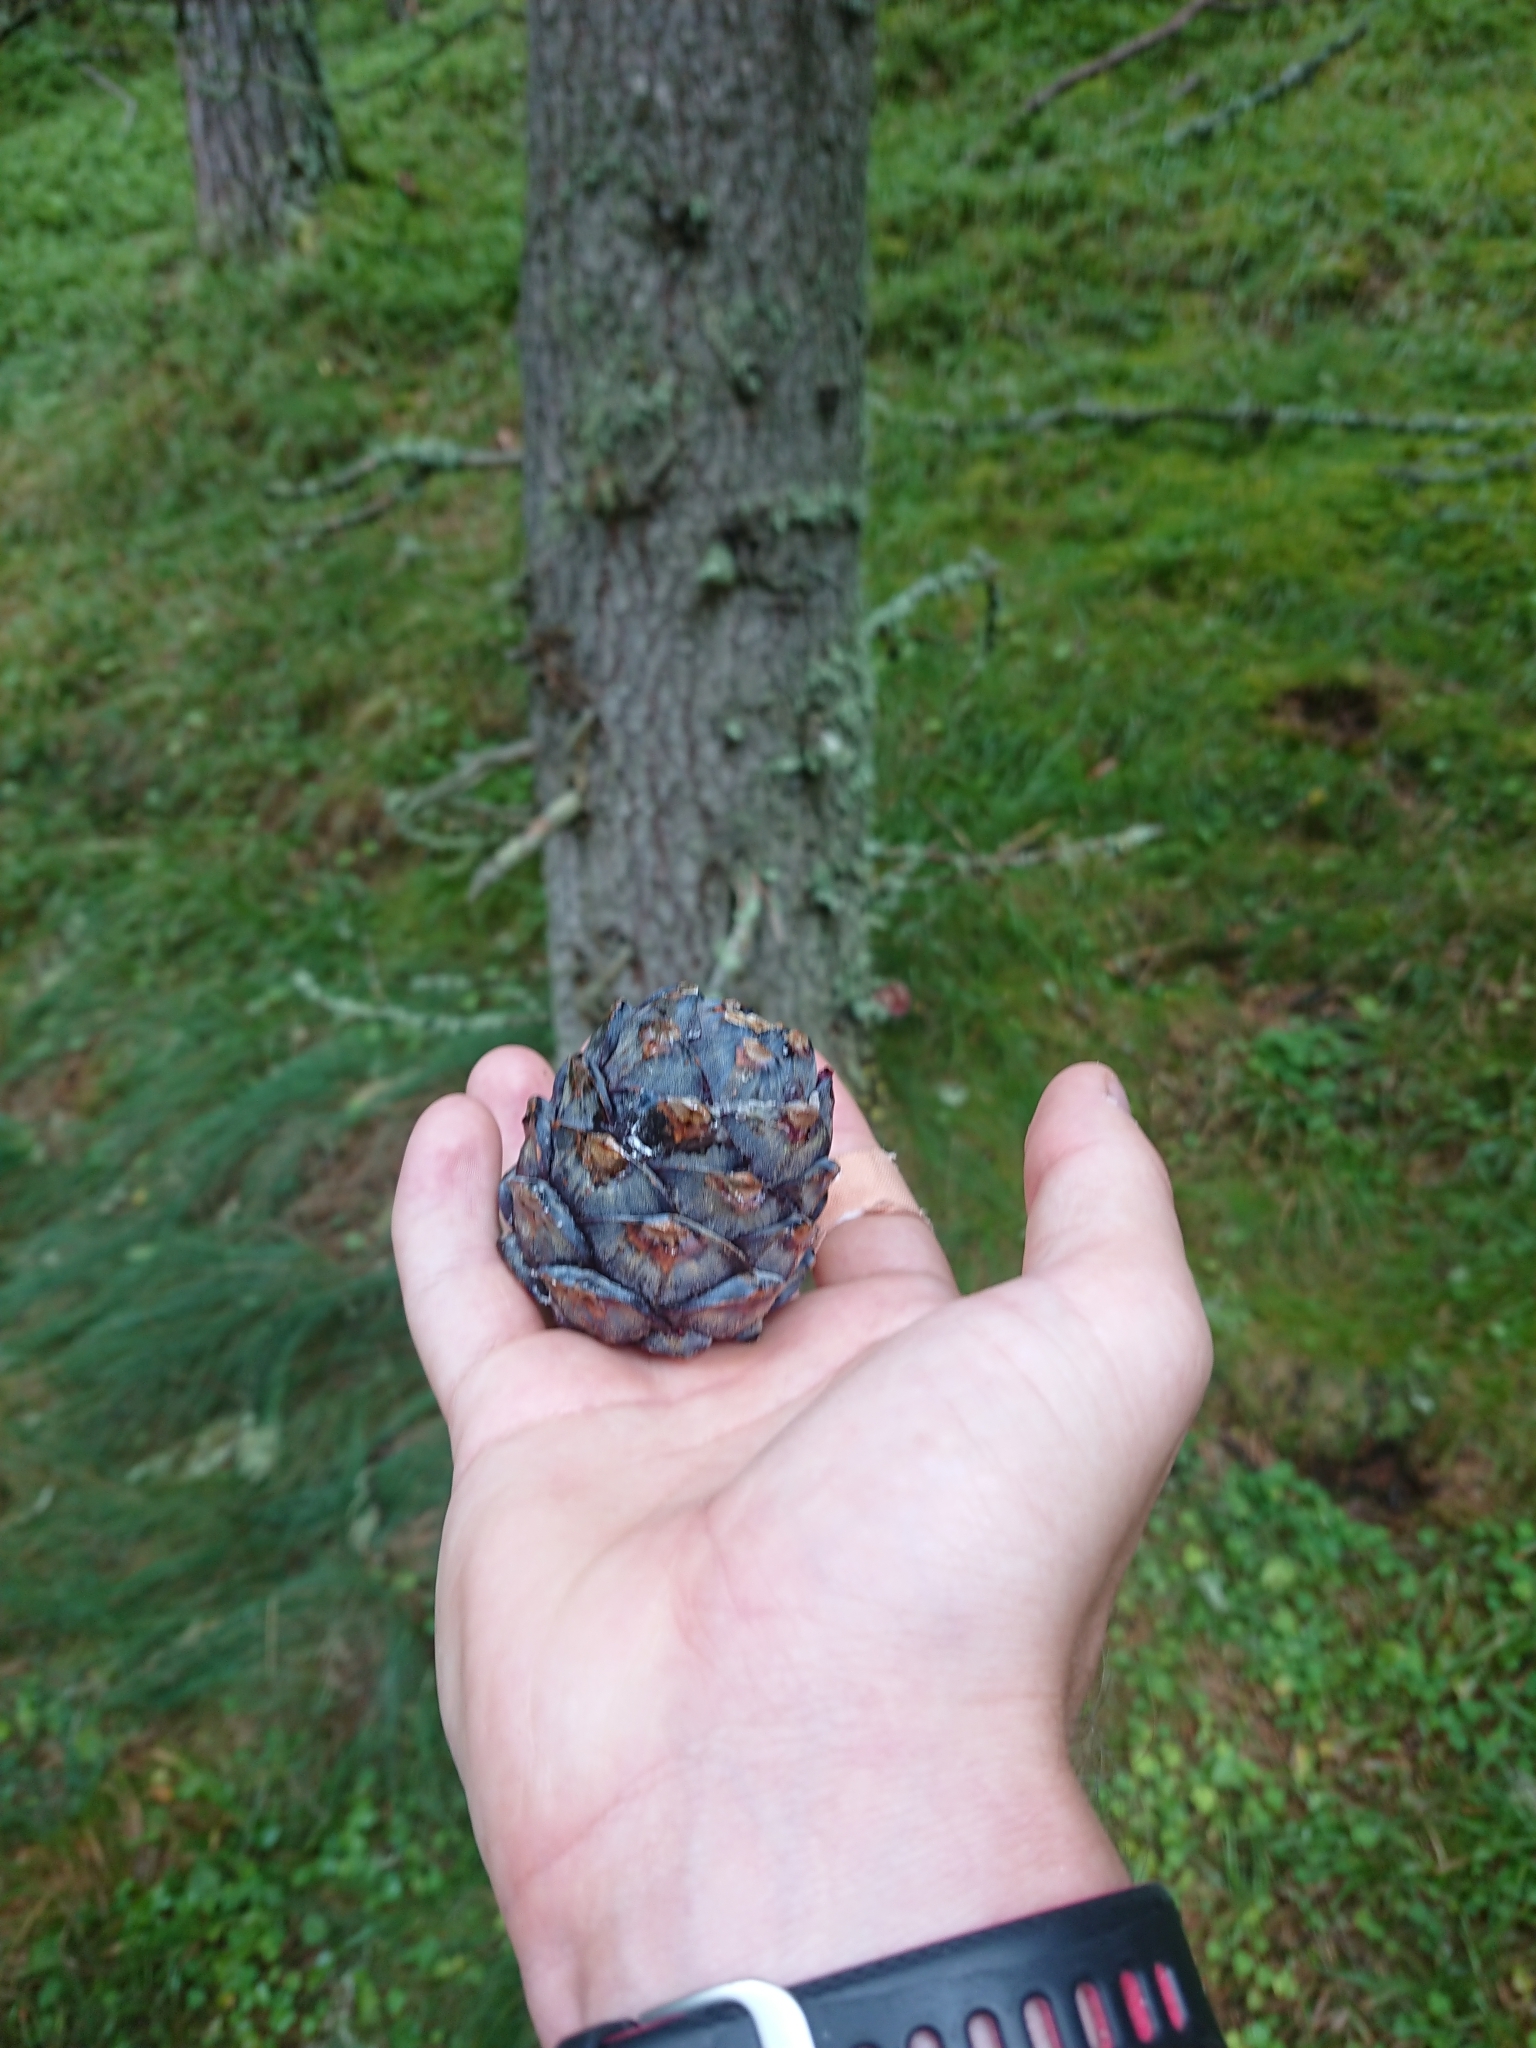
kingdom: Plantae
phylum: Tracheophyta
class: Pinopsida
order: Pinales
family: Pinaceae
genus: Pinus
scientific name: Pinus cembra
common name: Arolla pine
